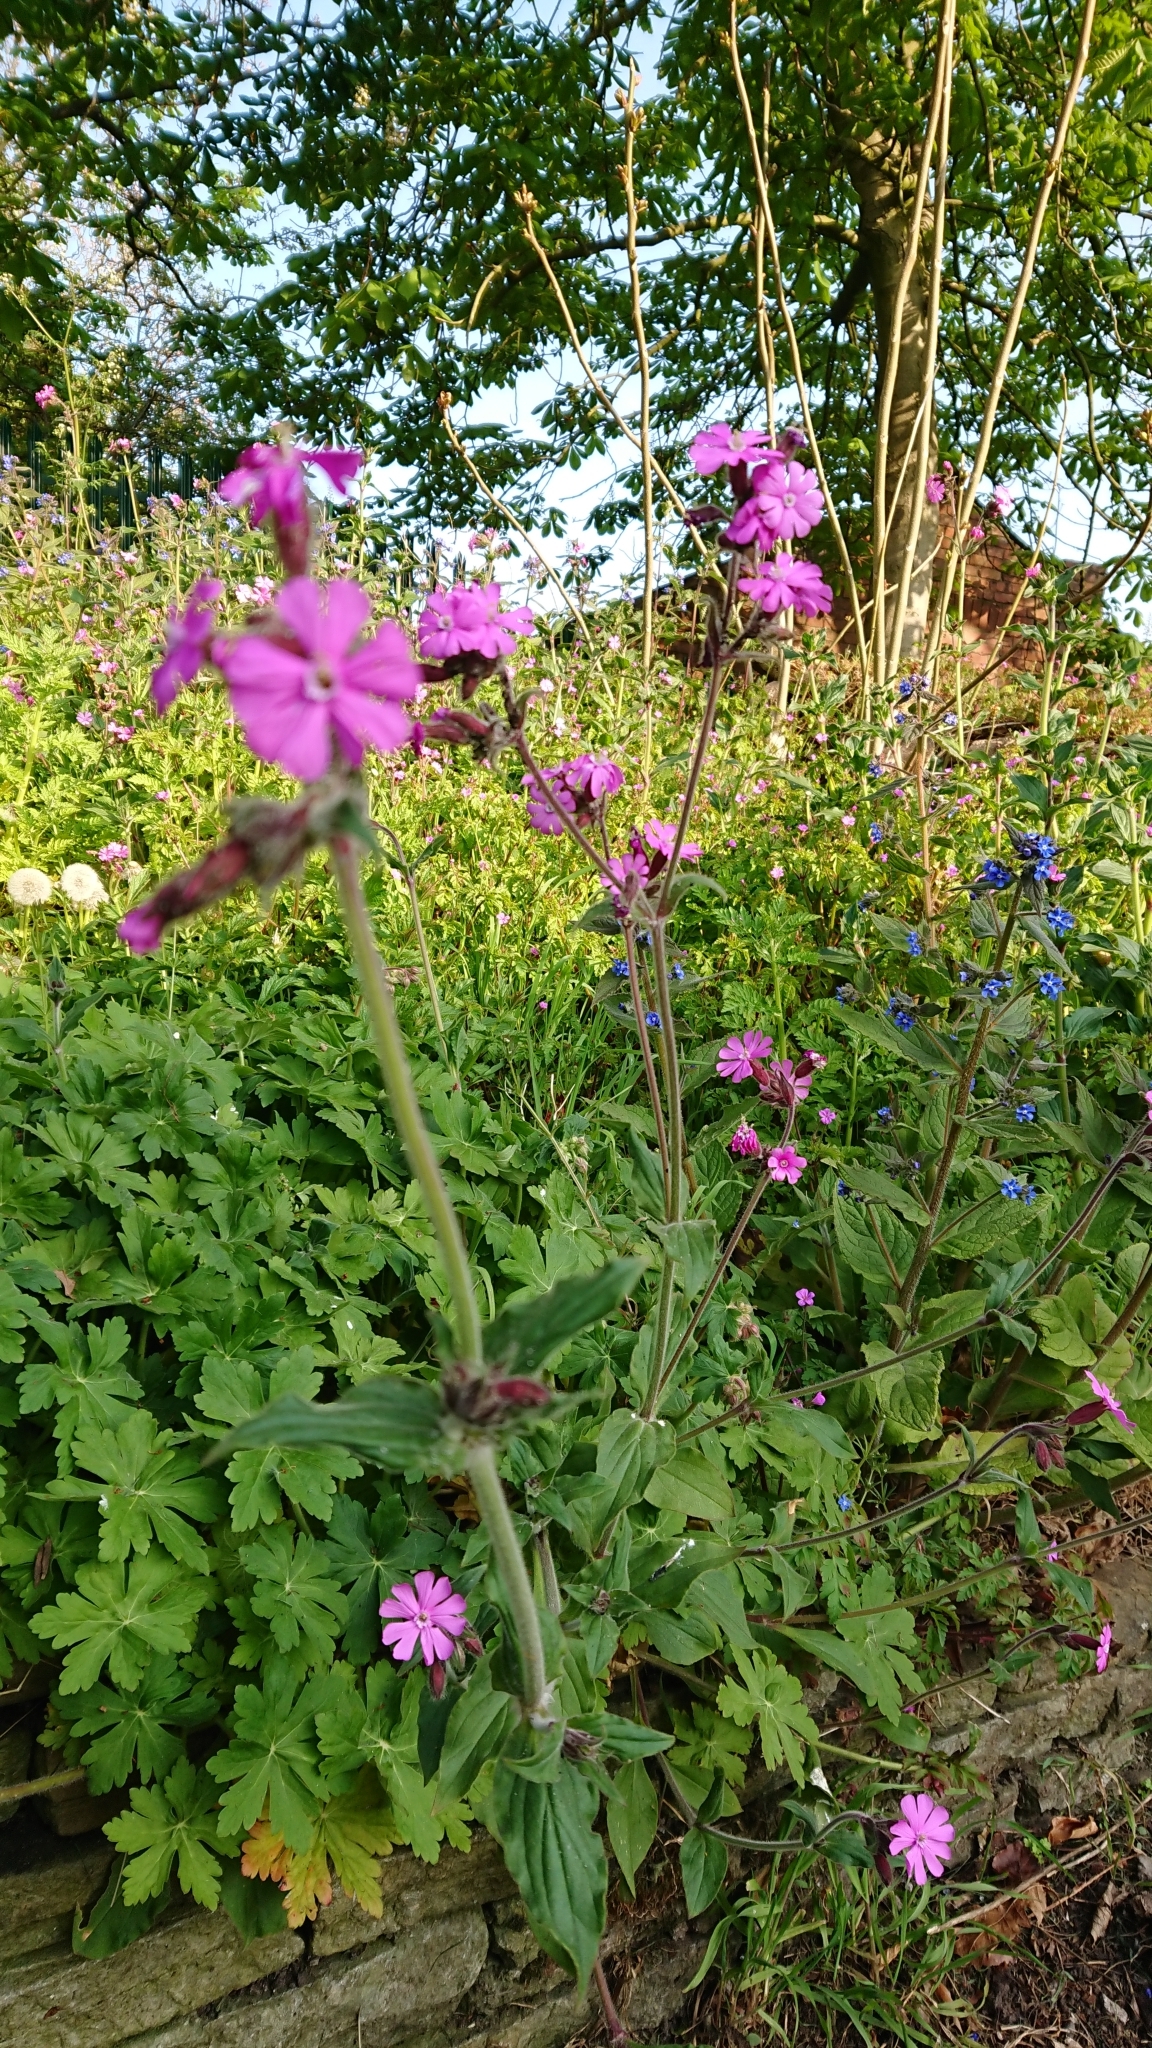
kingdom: Plantae
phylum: Tracheophyta
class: Magnoliopsida
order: Caryophyllales
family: Caryophyllaceae
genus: Silene
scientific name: Silene dioica
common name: Red campion
